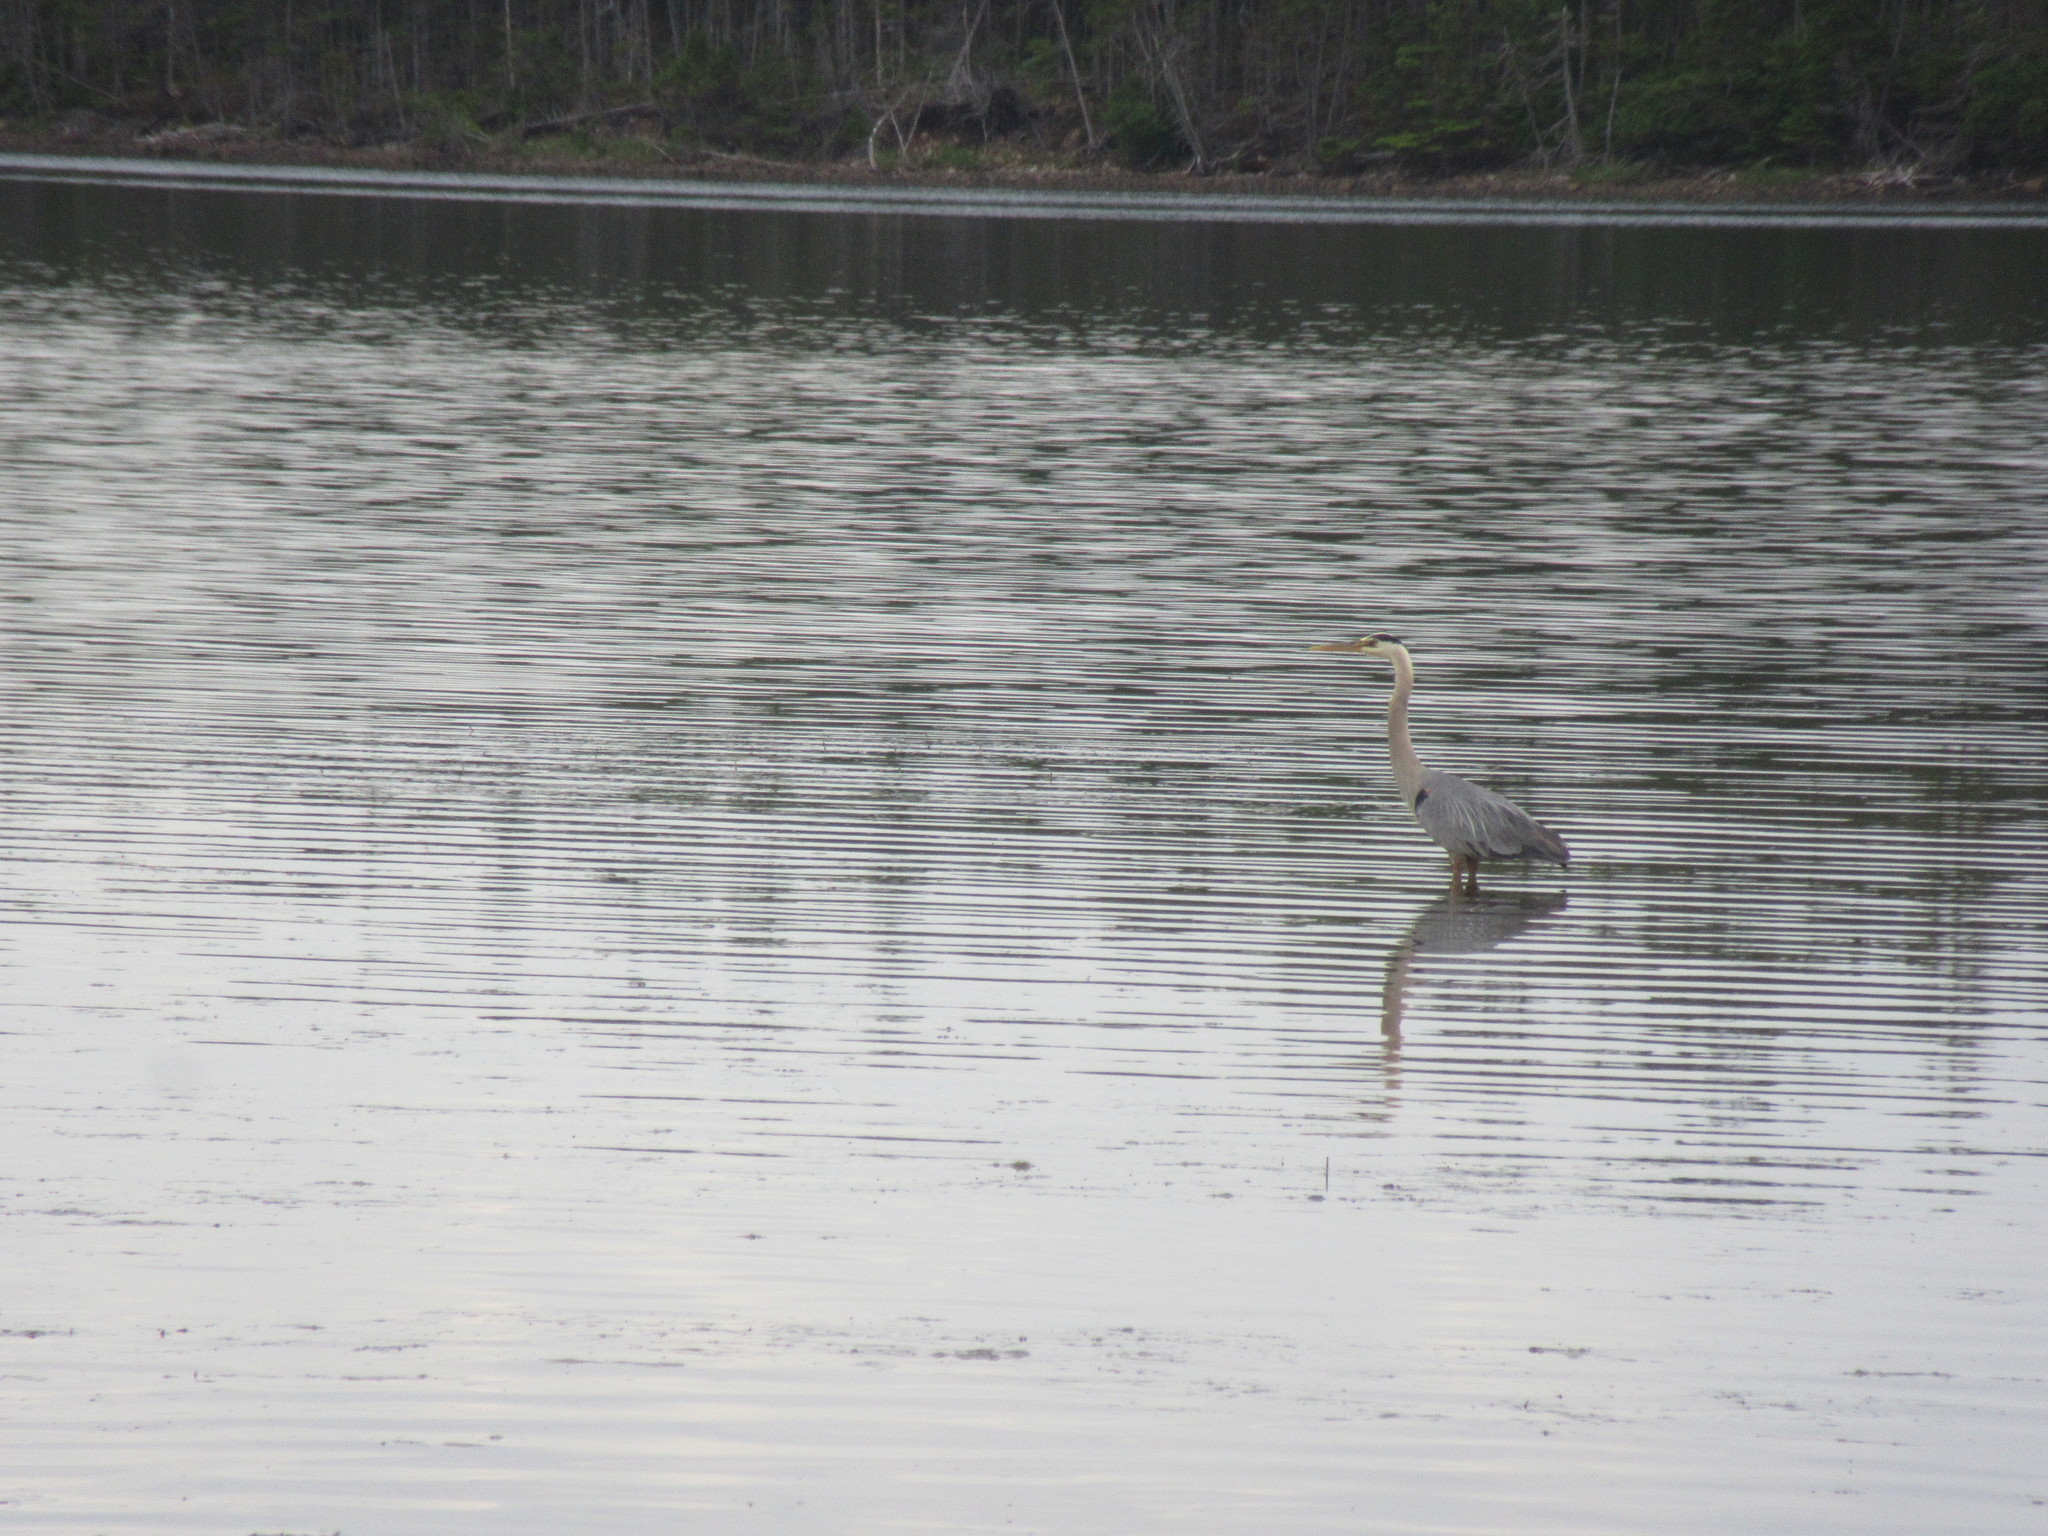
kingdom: Animalia
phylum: Chordata
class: Aves
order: Pelecaniformes
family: Ardeidae
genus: Ardea
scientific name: Ardea herodias
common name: Great blue heron
